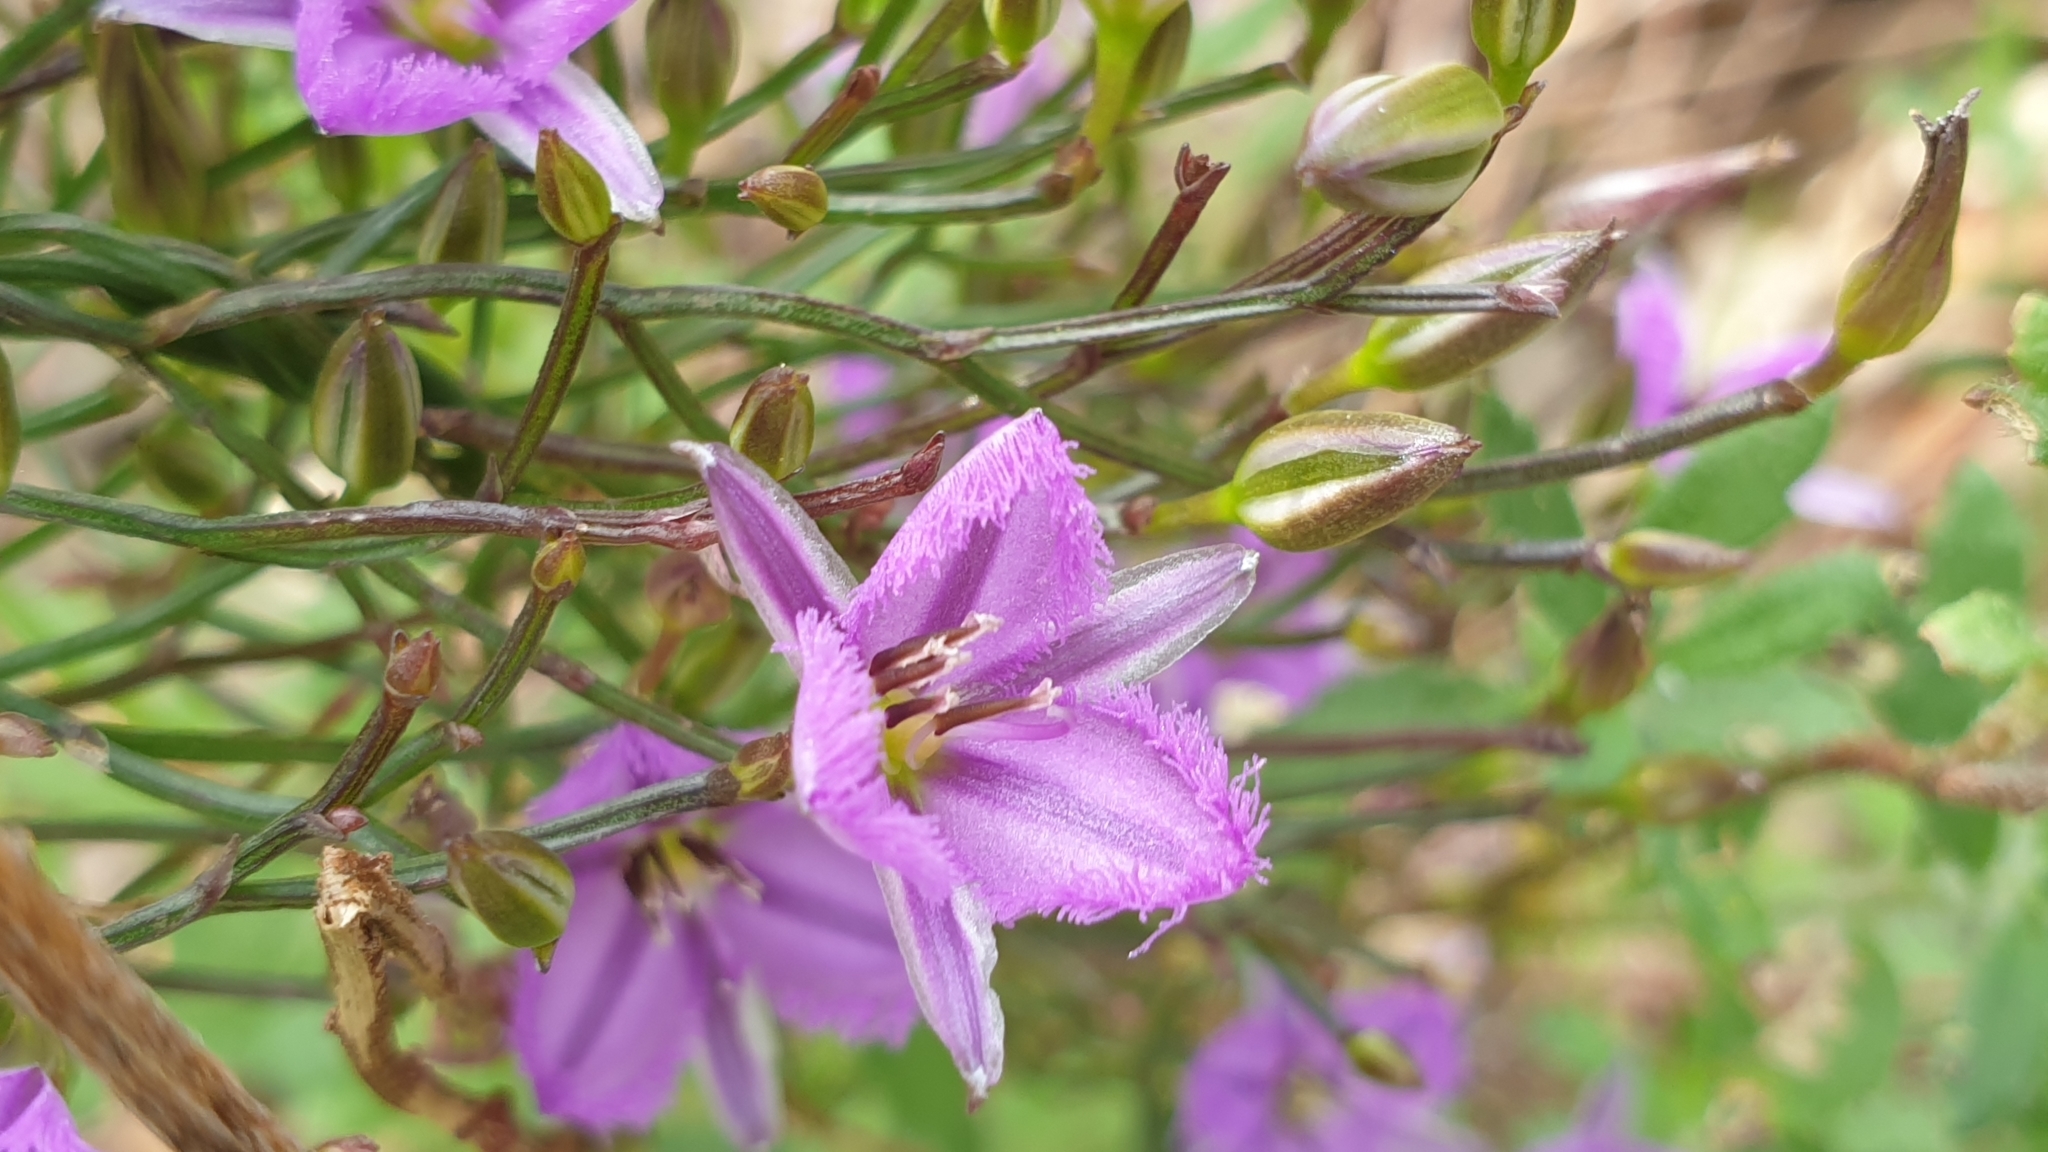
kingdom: Plantae
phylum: Tracheophyta
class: Liliopsida
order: Asparagales
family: Asparagaceae
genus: Thysanotus
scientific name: Thysanotus patersonii
